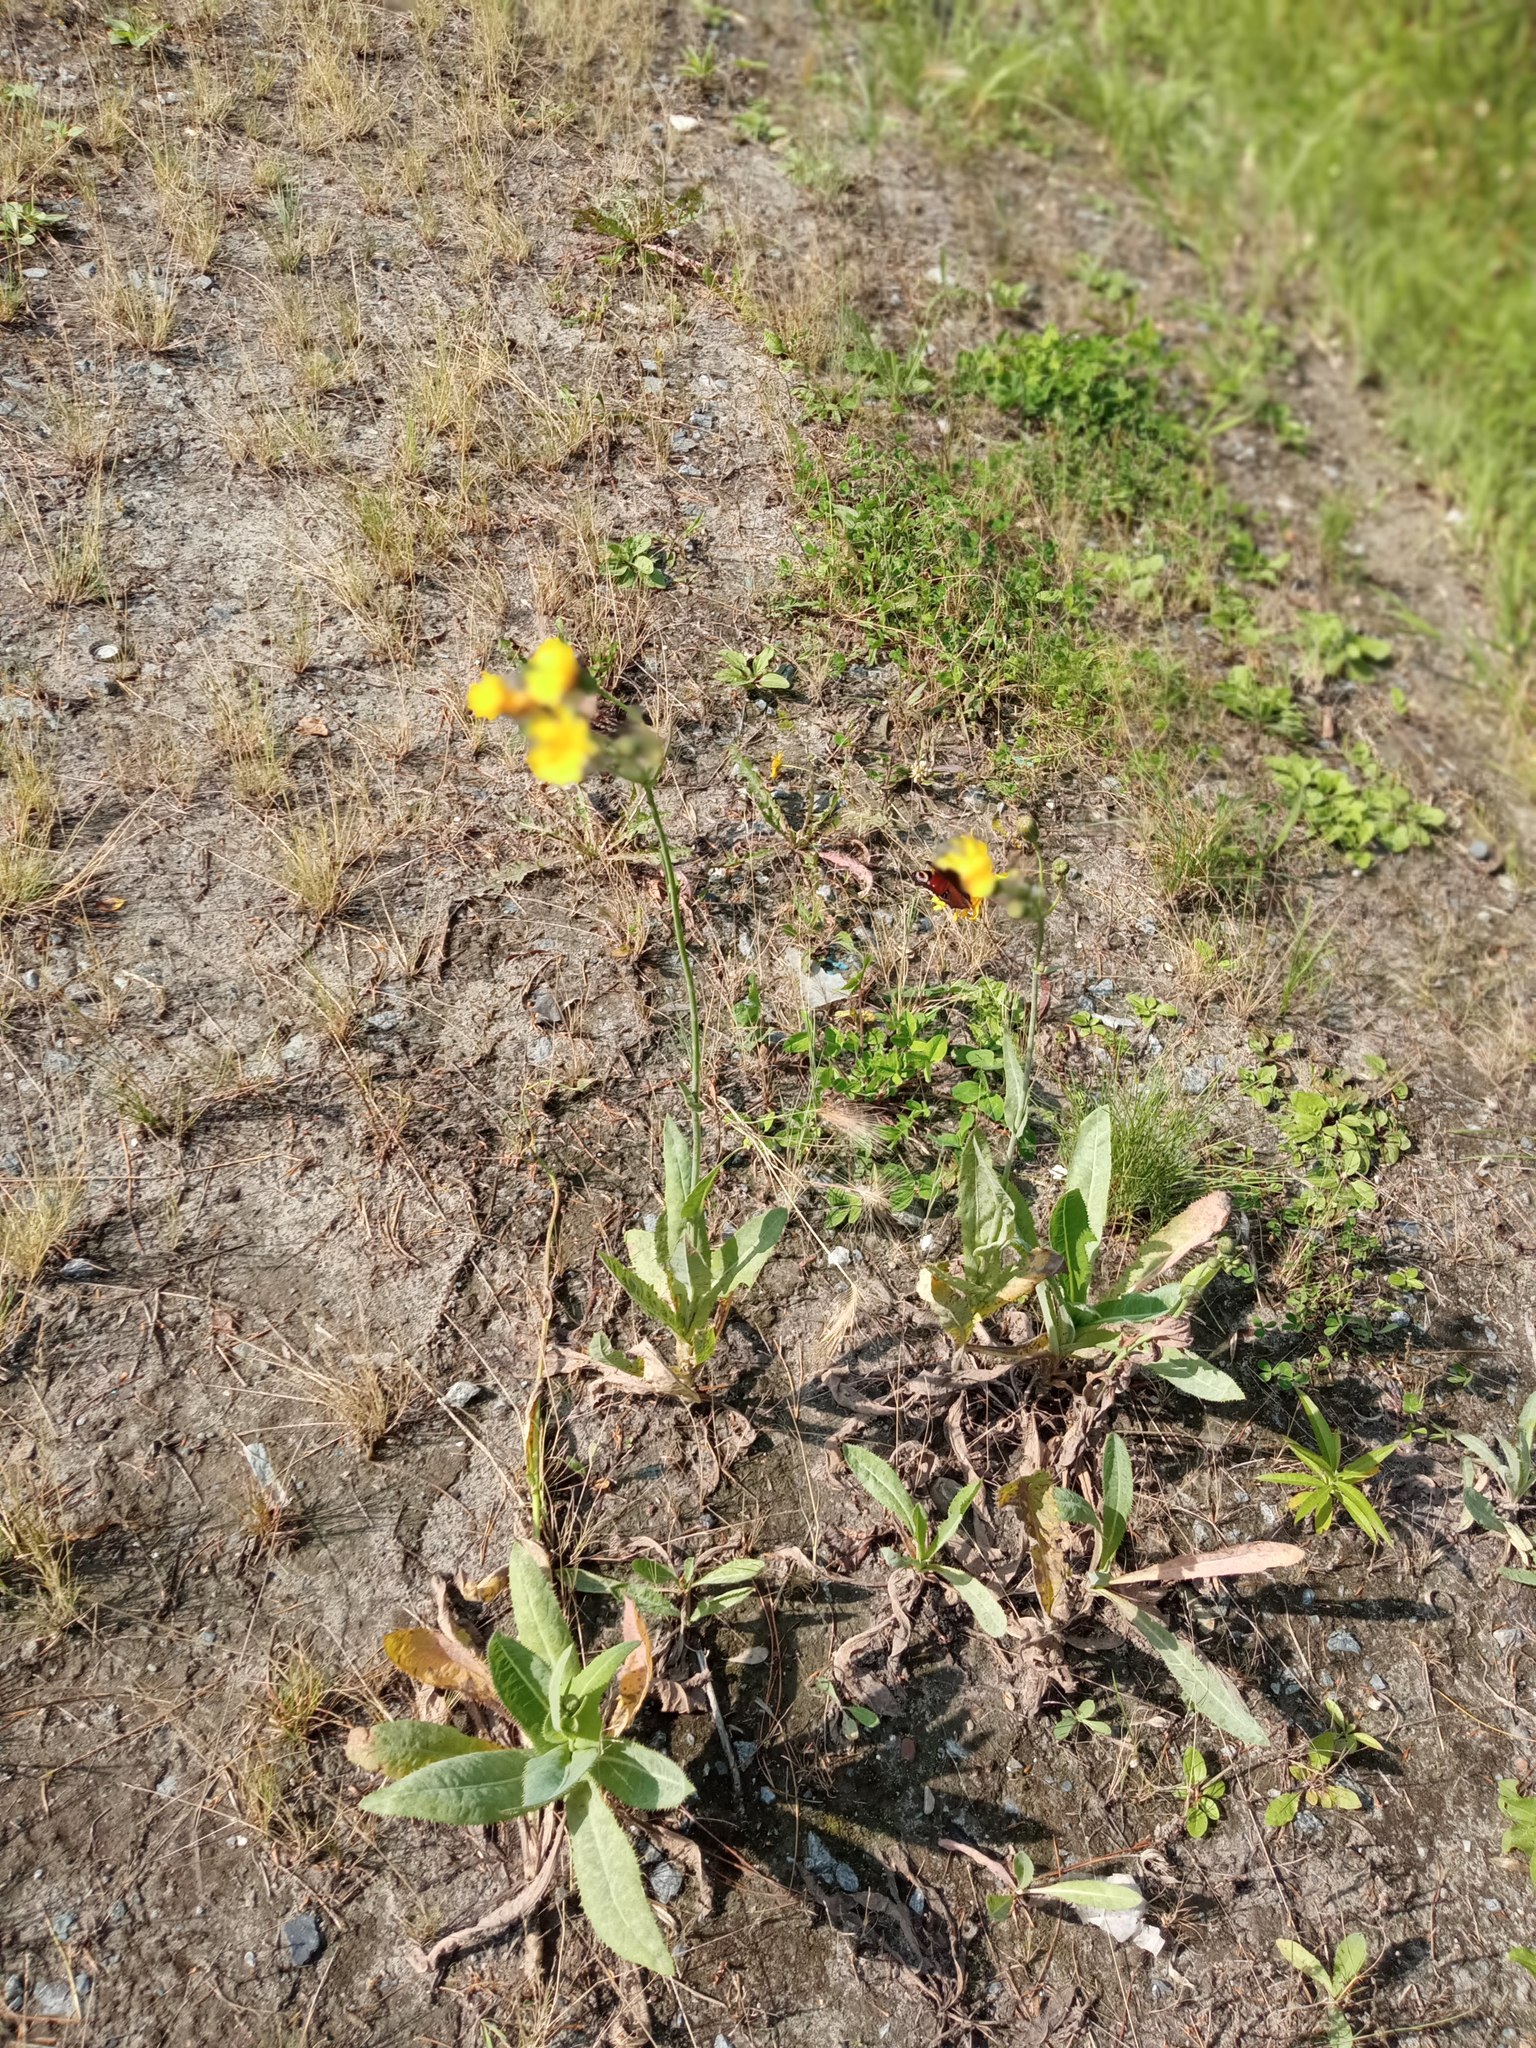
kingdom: Plantae
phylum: Tracheophyta
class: Magnoliopsida
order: Asterales
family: Asteraceae
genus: Sonchus
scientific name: Sonchus arvensis
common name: Perennial sow-thistle
